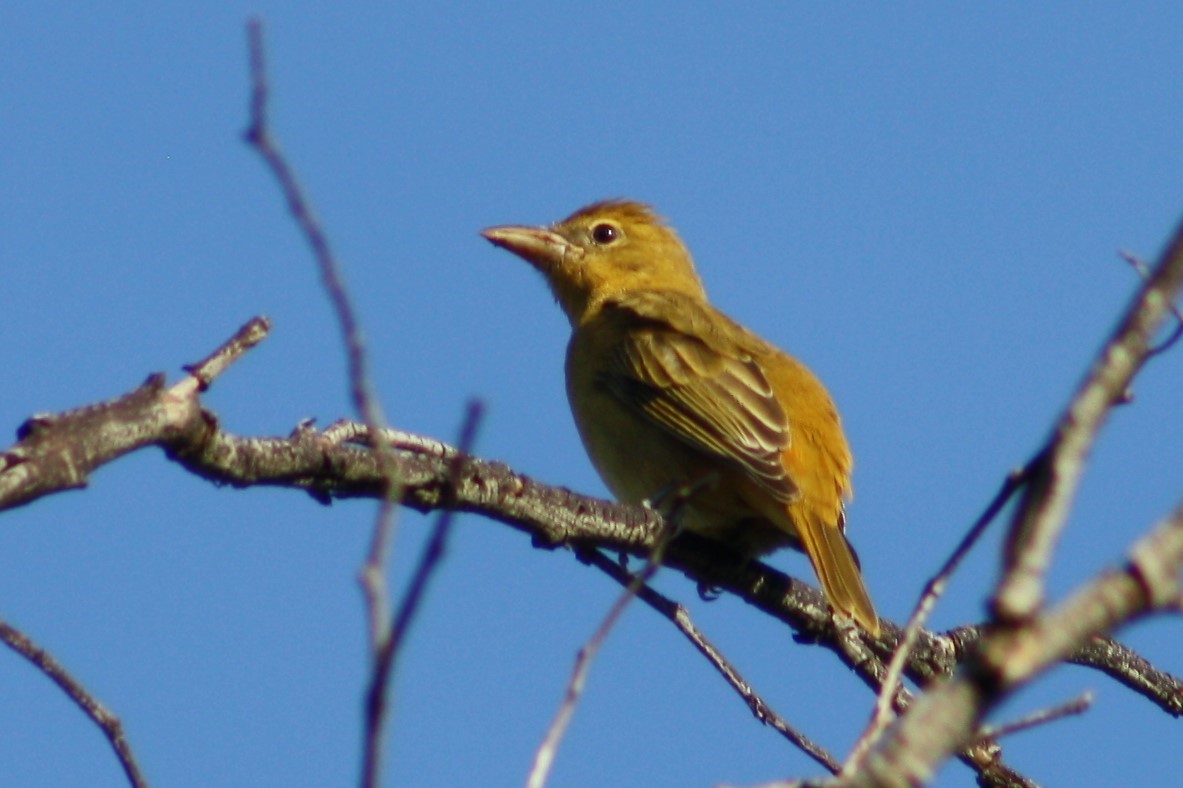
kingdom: Animalia
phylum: Chordata
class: Aves
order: Passeriformes
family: Cardinalidae
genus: Piranga
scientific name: Piranga rubra
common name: Summer tanager
